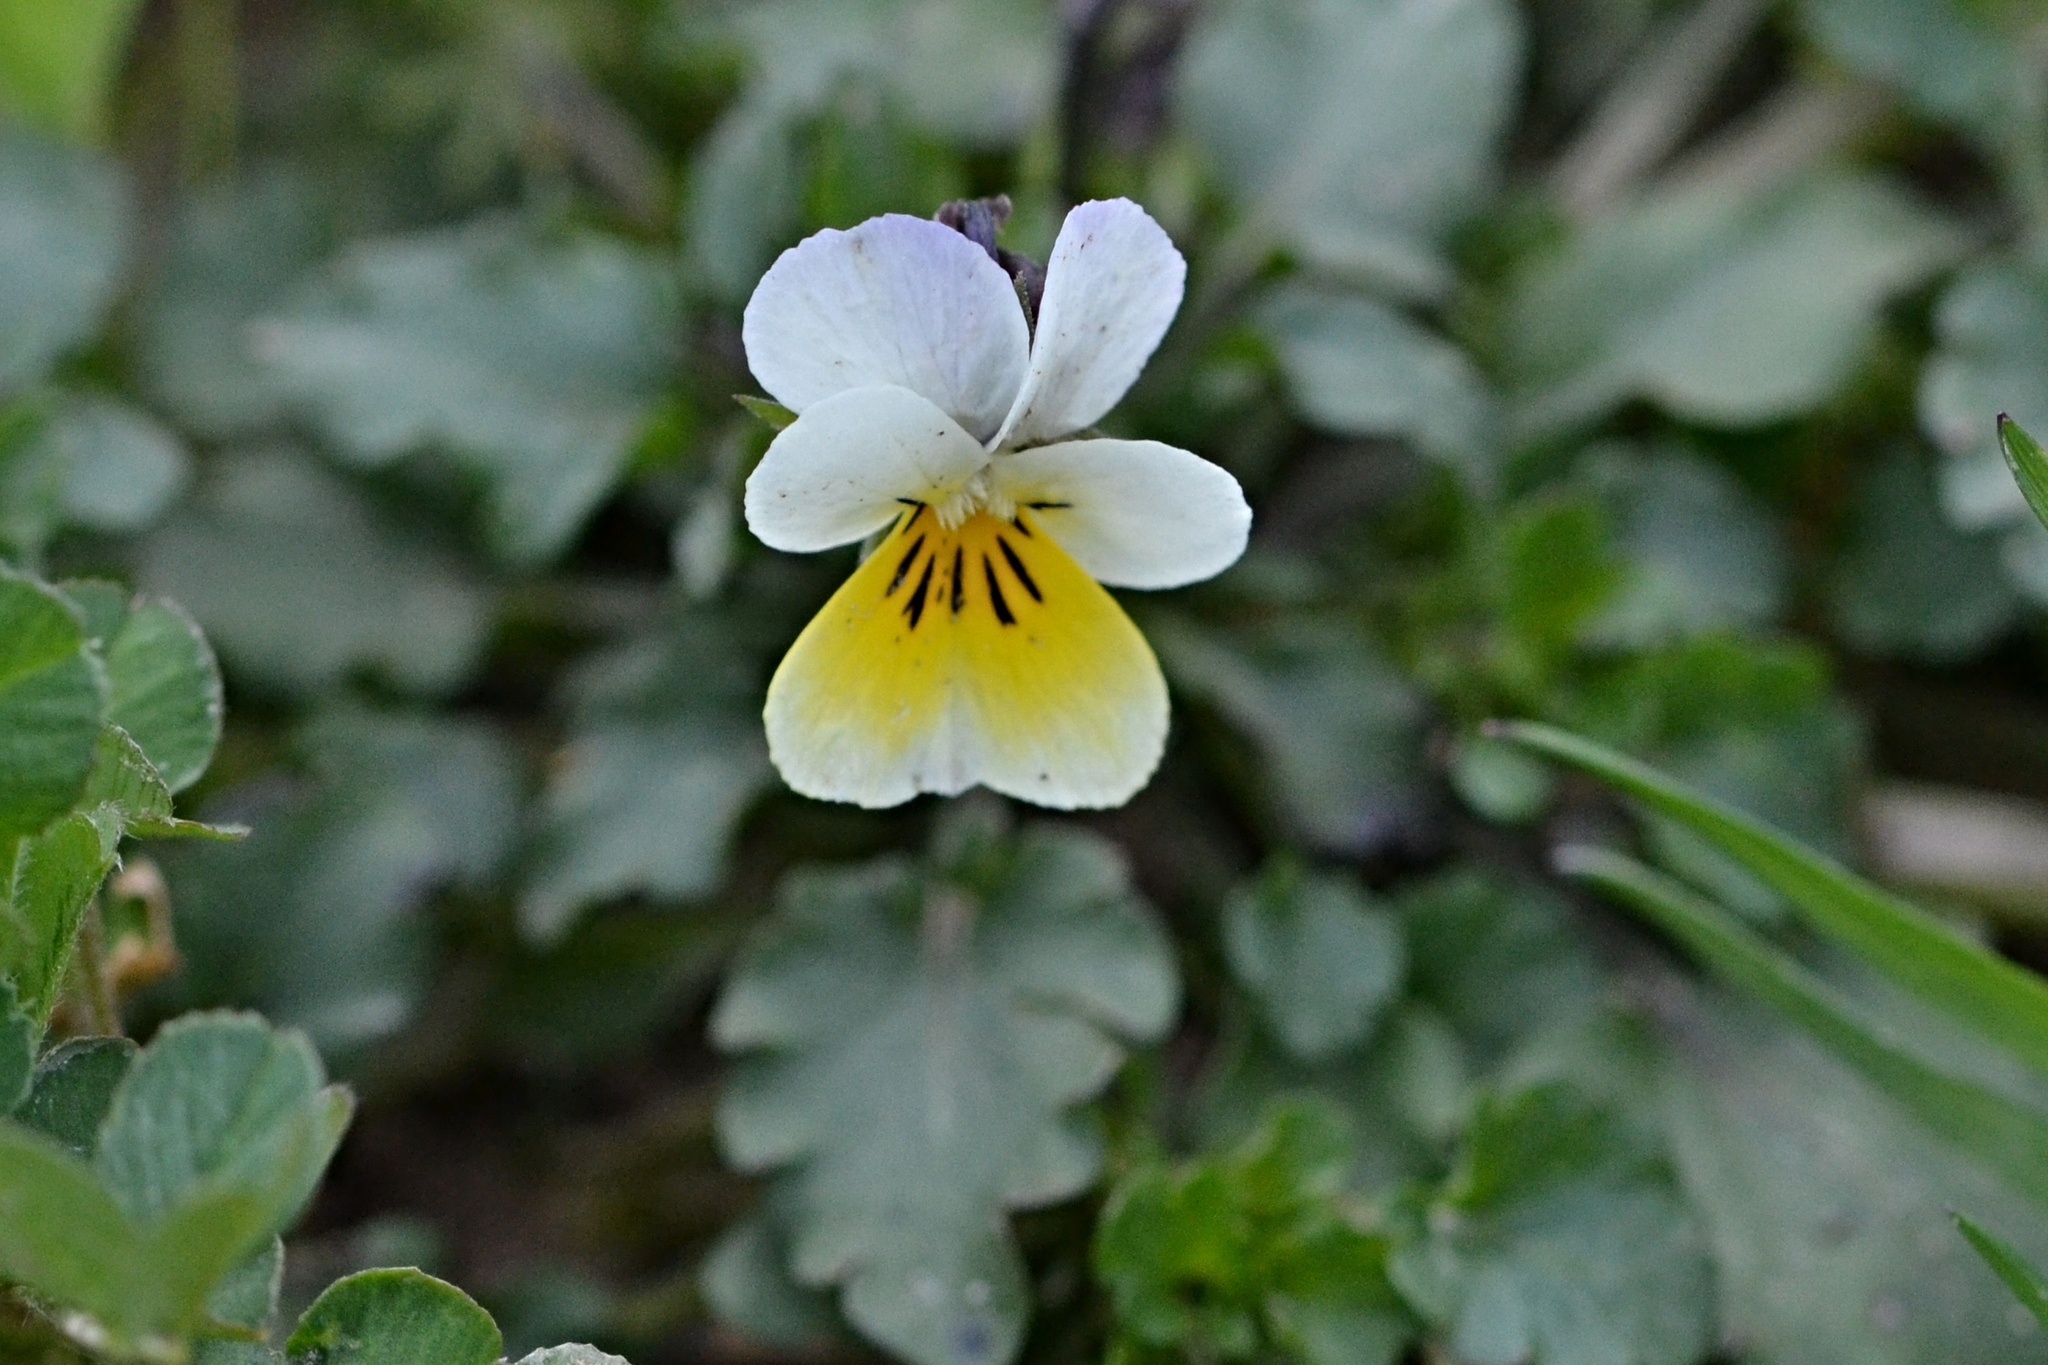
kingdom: Plantae
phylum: Tracheophyta
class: Magnoliopsida
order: Malpighiales
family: Violaceae
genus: Viola
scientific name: Viola arvensis
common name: Field pansy
